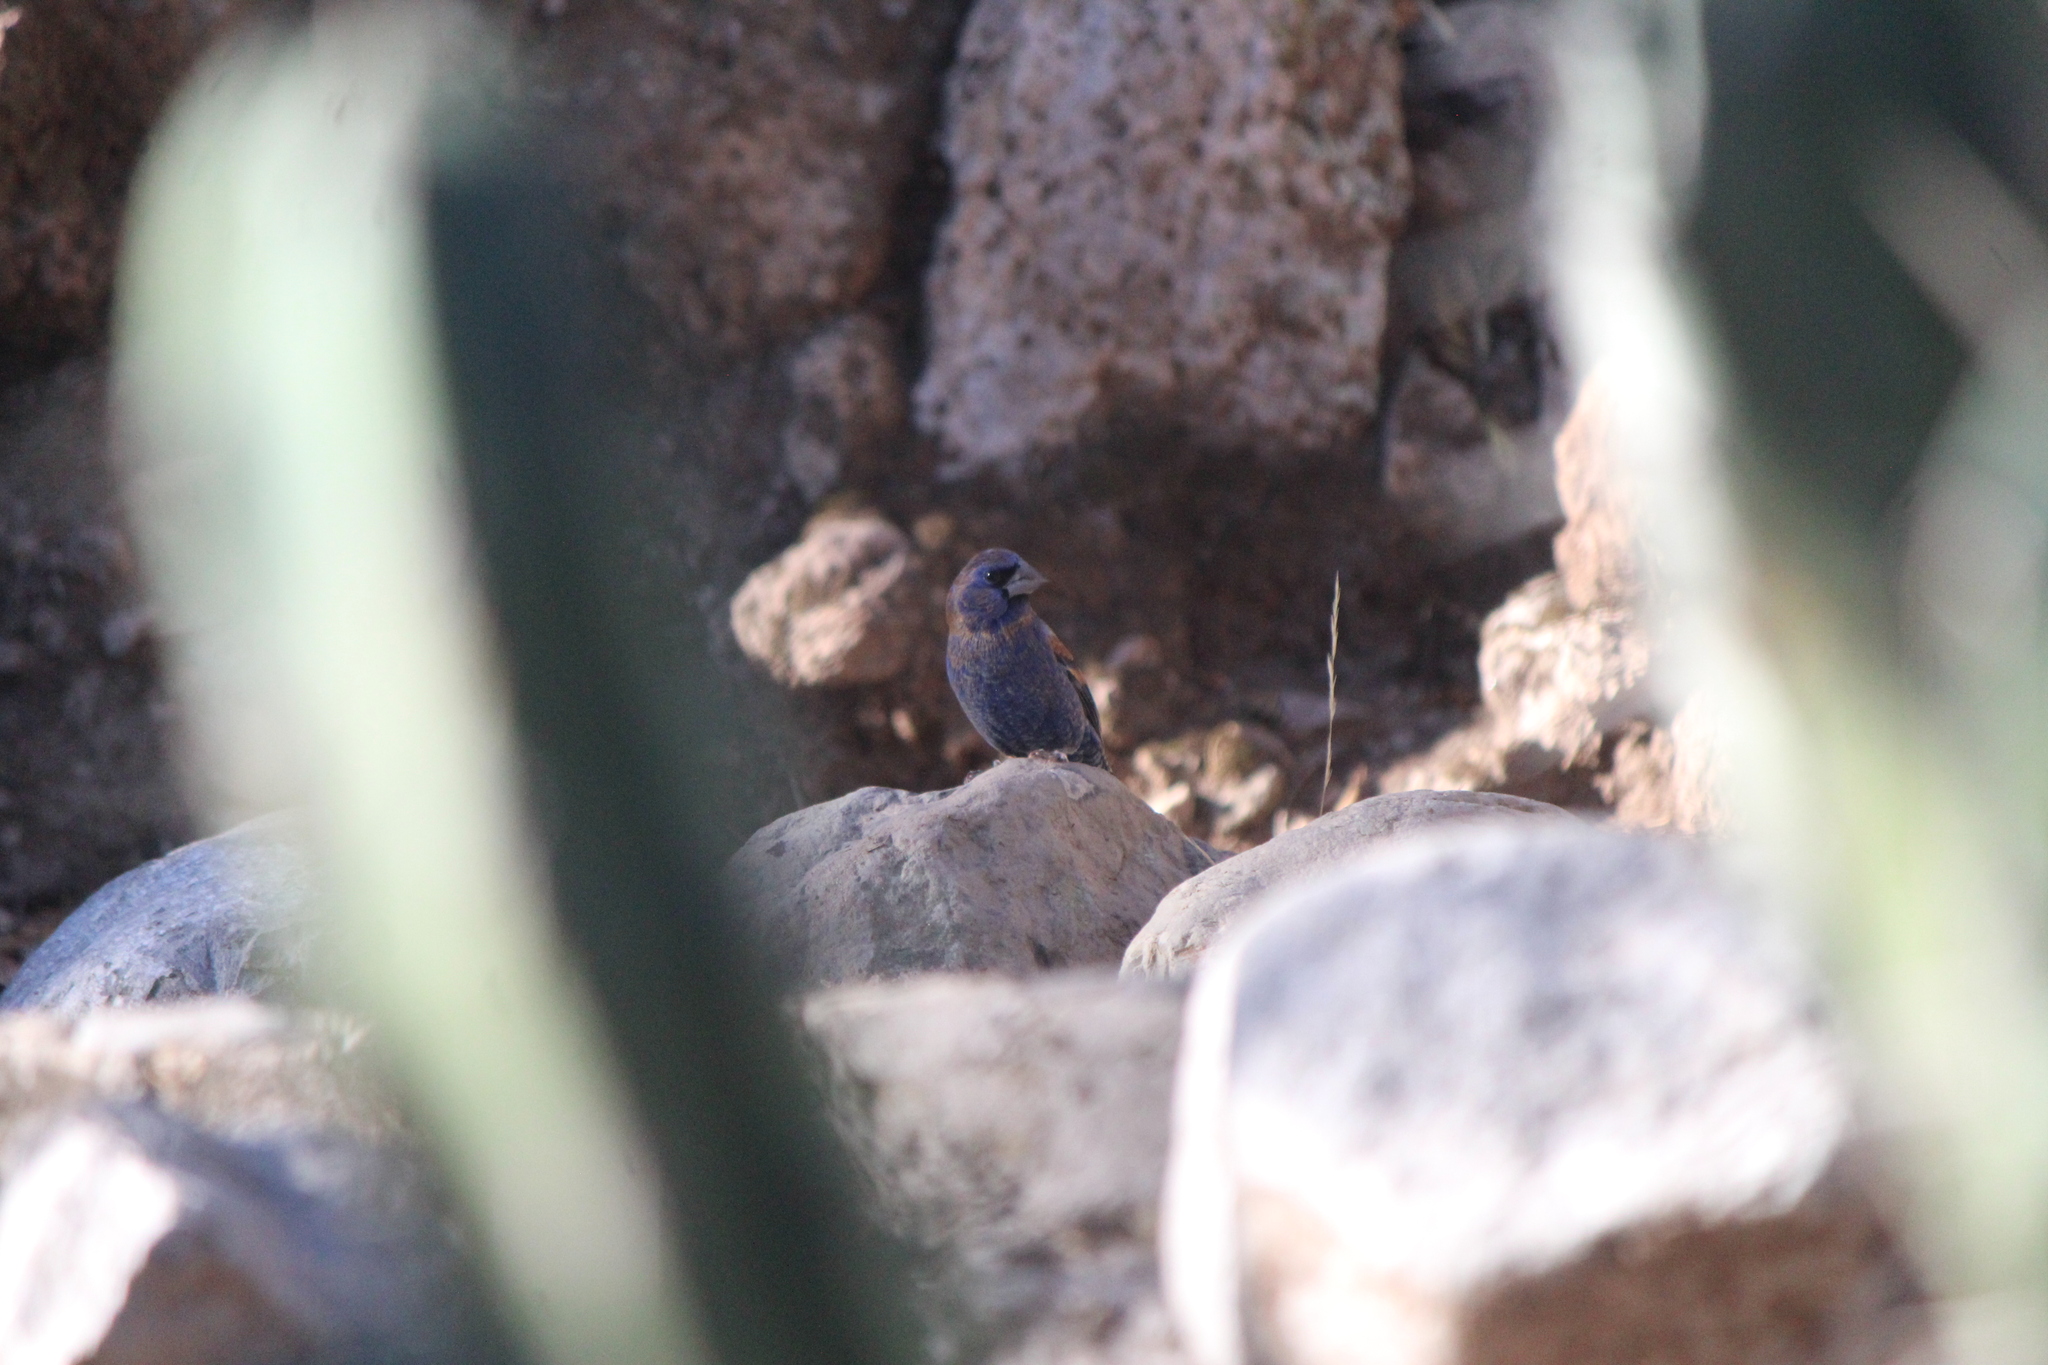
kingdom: Animalia
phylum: Chordata
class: Aves
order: Passeriformes
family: Cardinalidae
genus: Passerina
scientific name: Passerina caerulea
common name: Blue grosbeak
